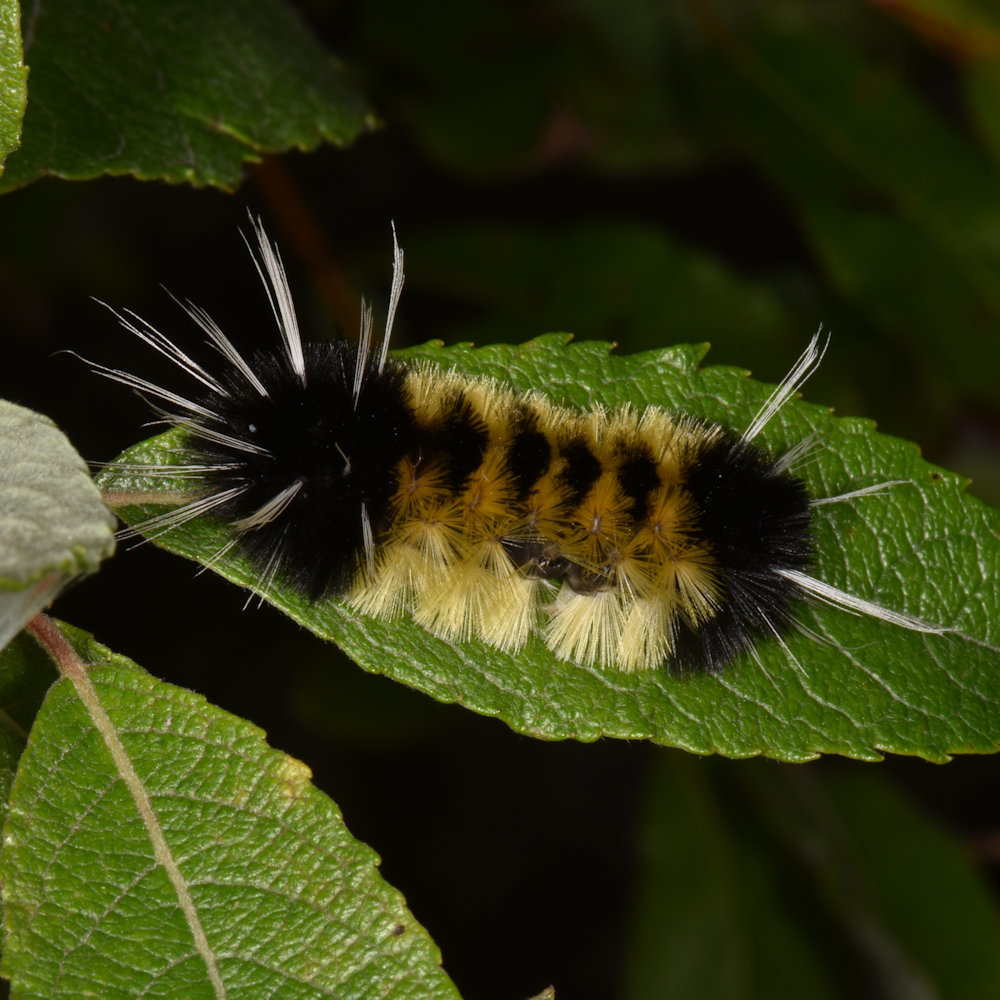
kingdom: Animalia
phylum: Arthropoda
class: Insecta
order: Lepidoptera
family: Erebidae
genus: Lophocampa
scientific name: Lophocampa maculata
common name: Spotted tussock moth
